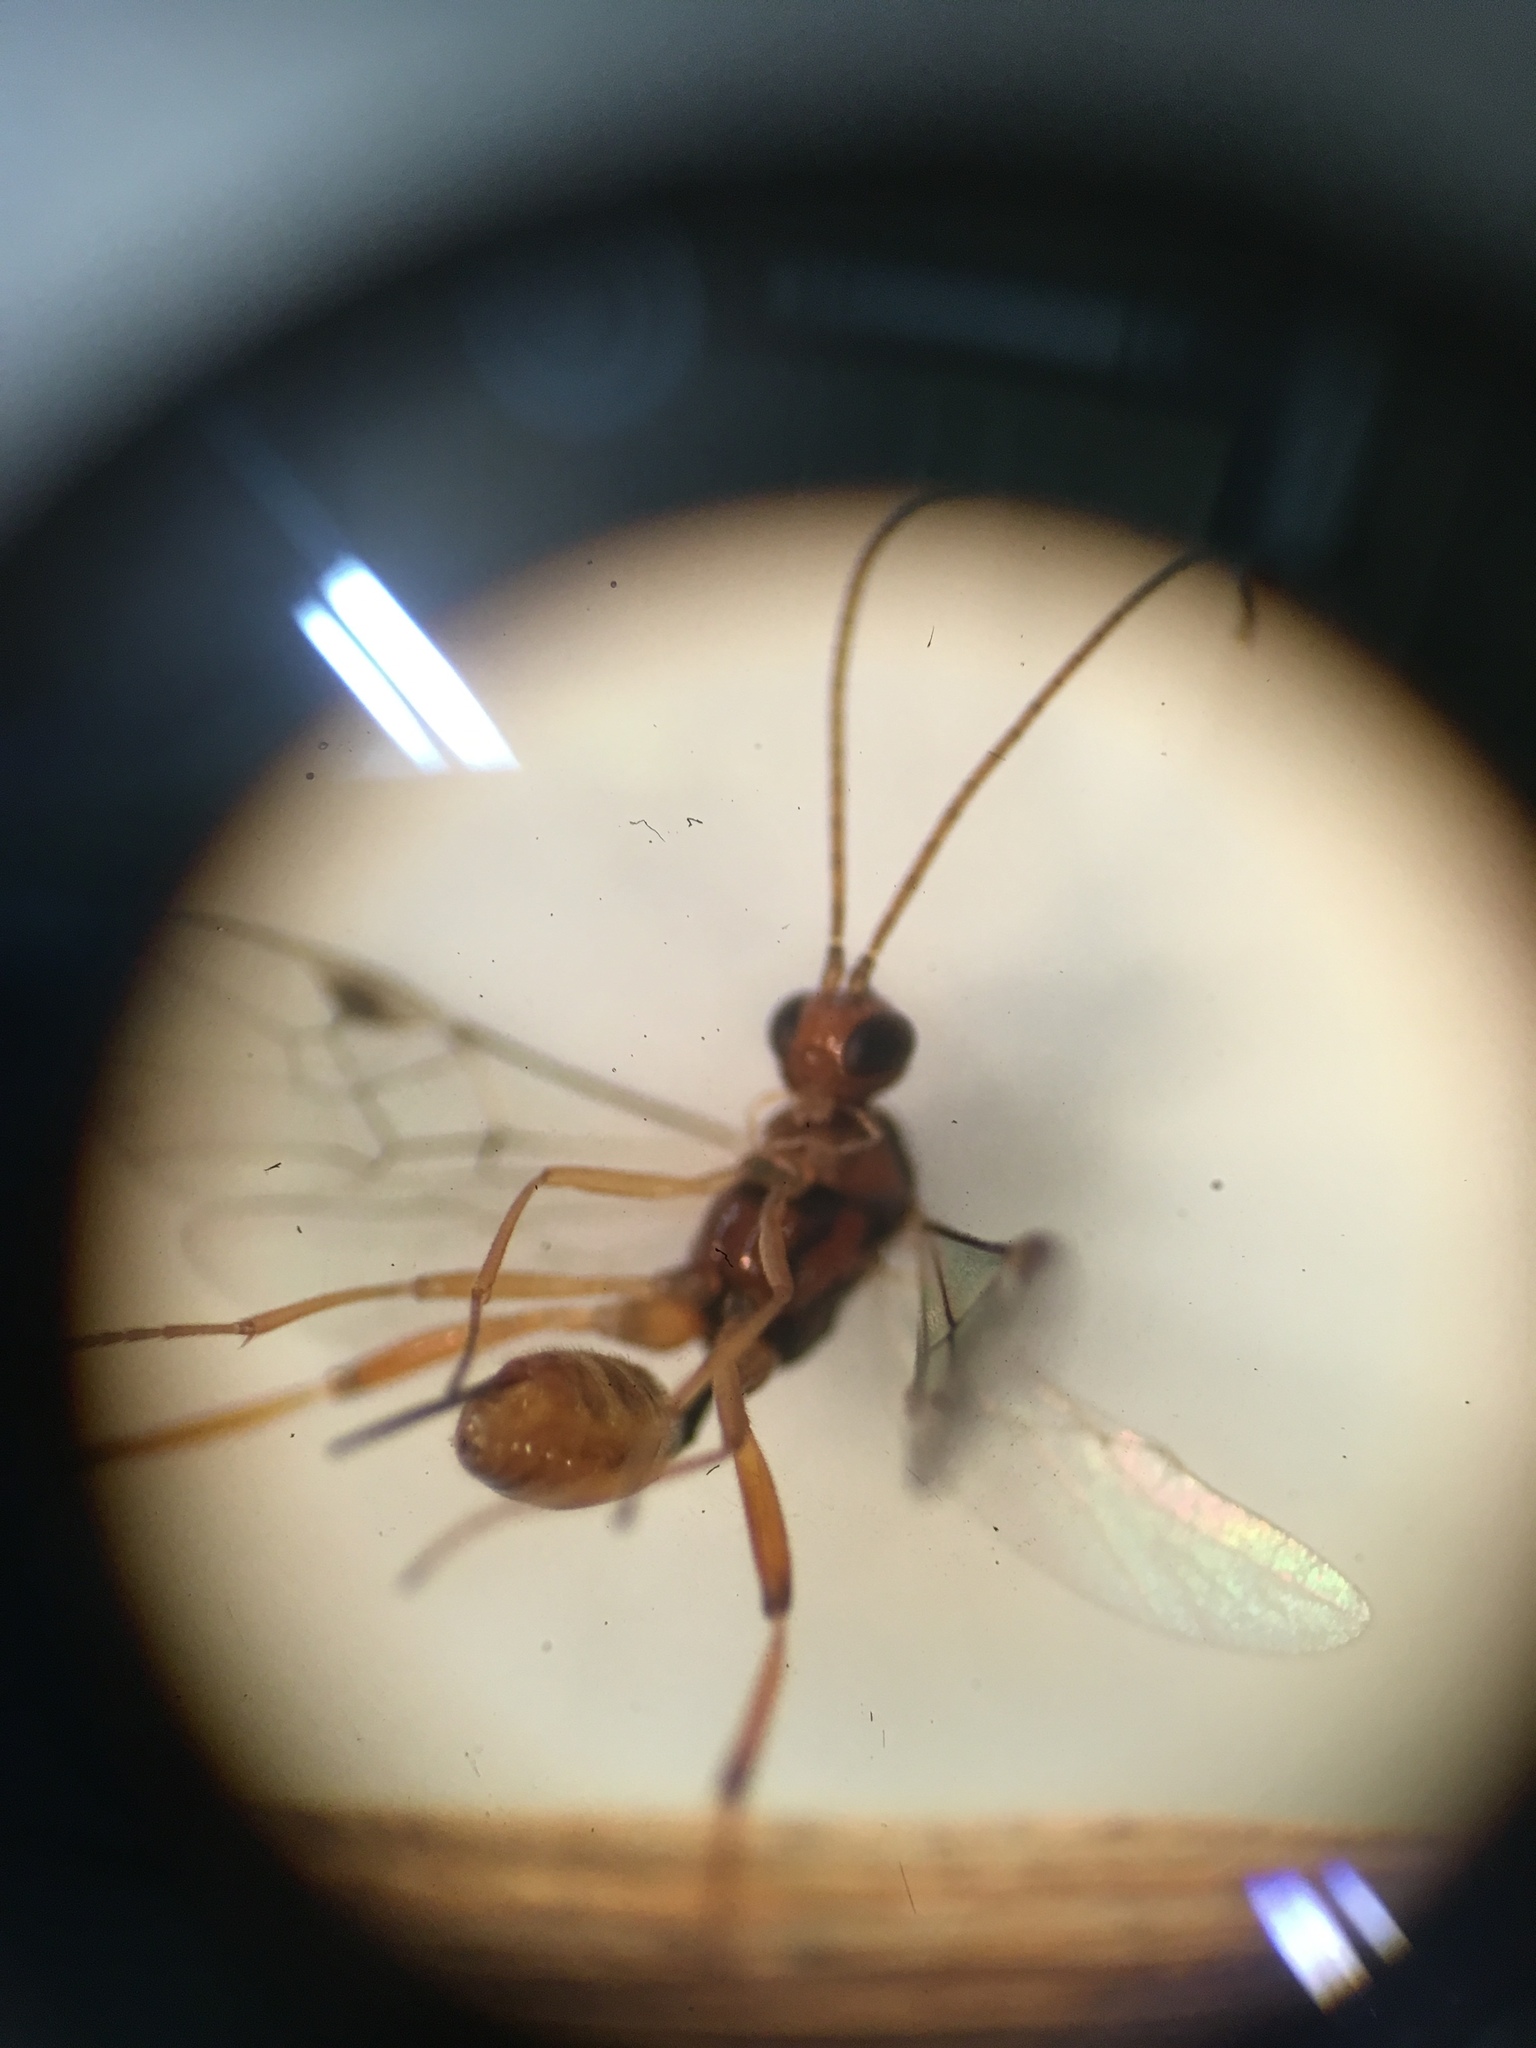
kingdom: Animalia
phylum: Arthropoda
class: Insecta
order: Hymenoptera
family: Braconidae
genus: Meteorus
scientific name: Meteorus pulchricornis
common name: Braconid wasp
